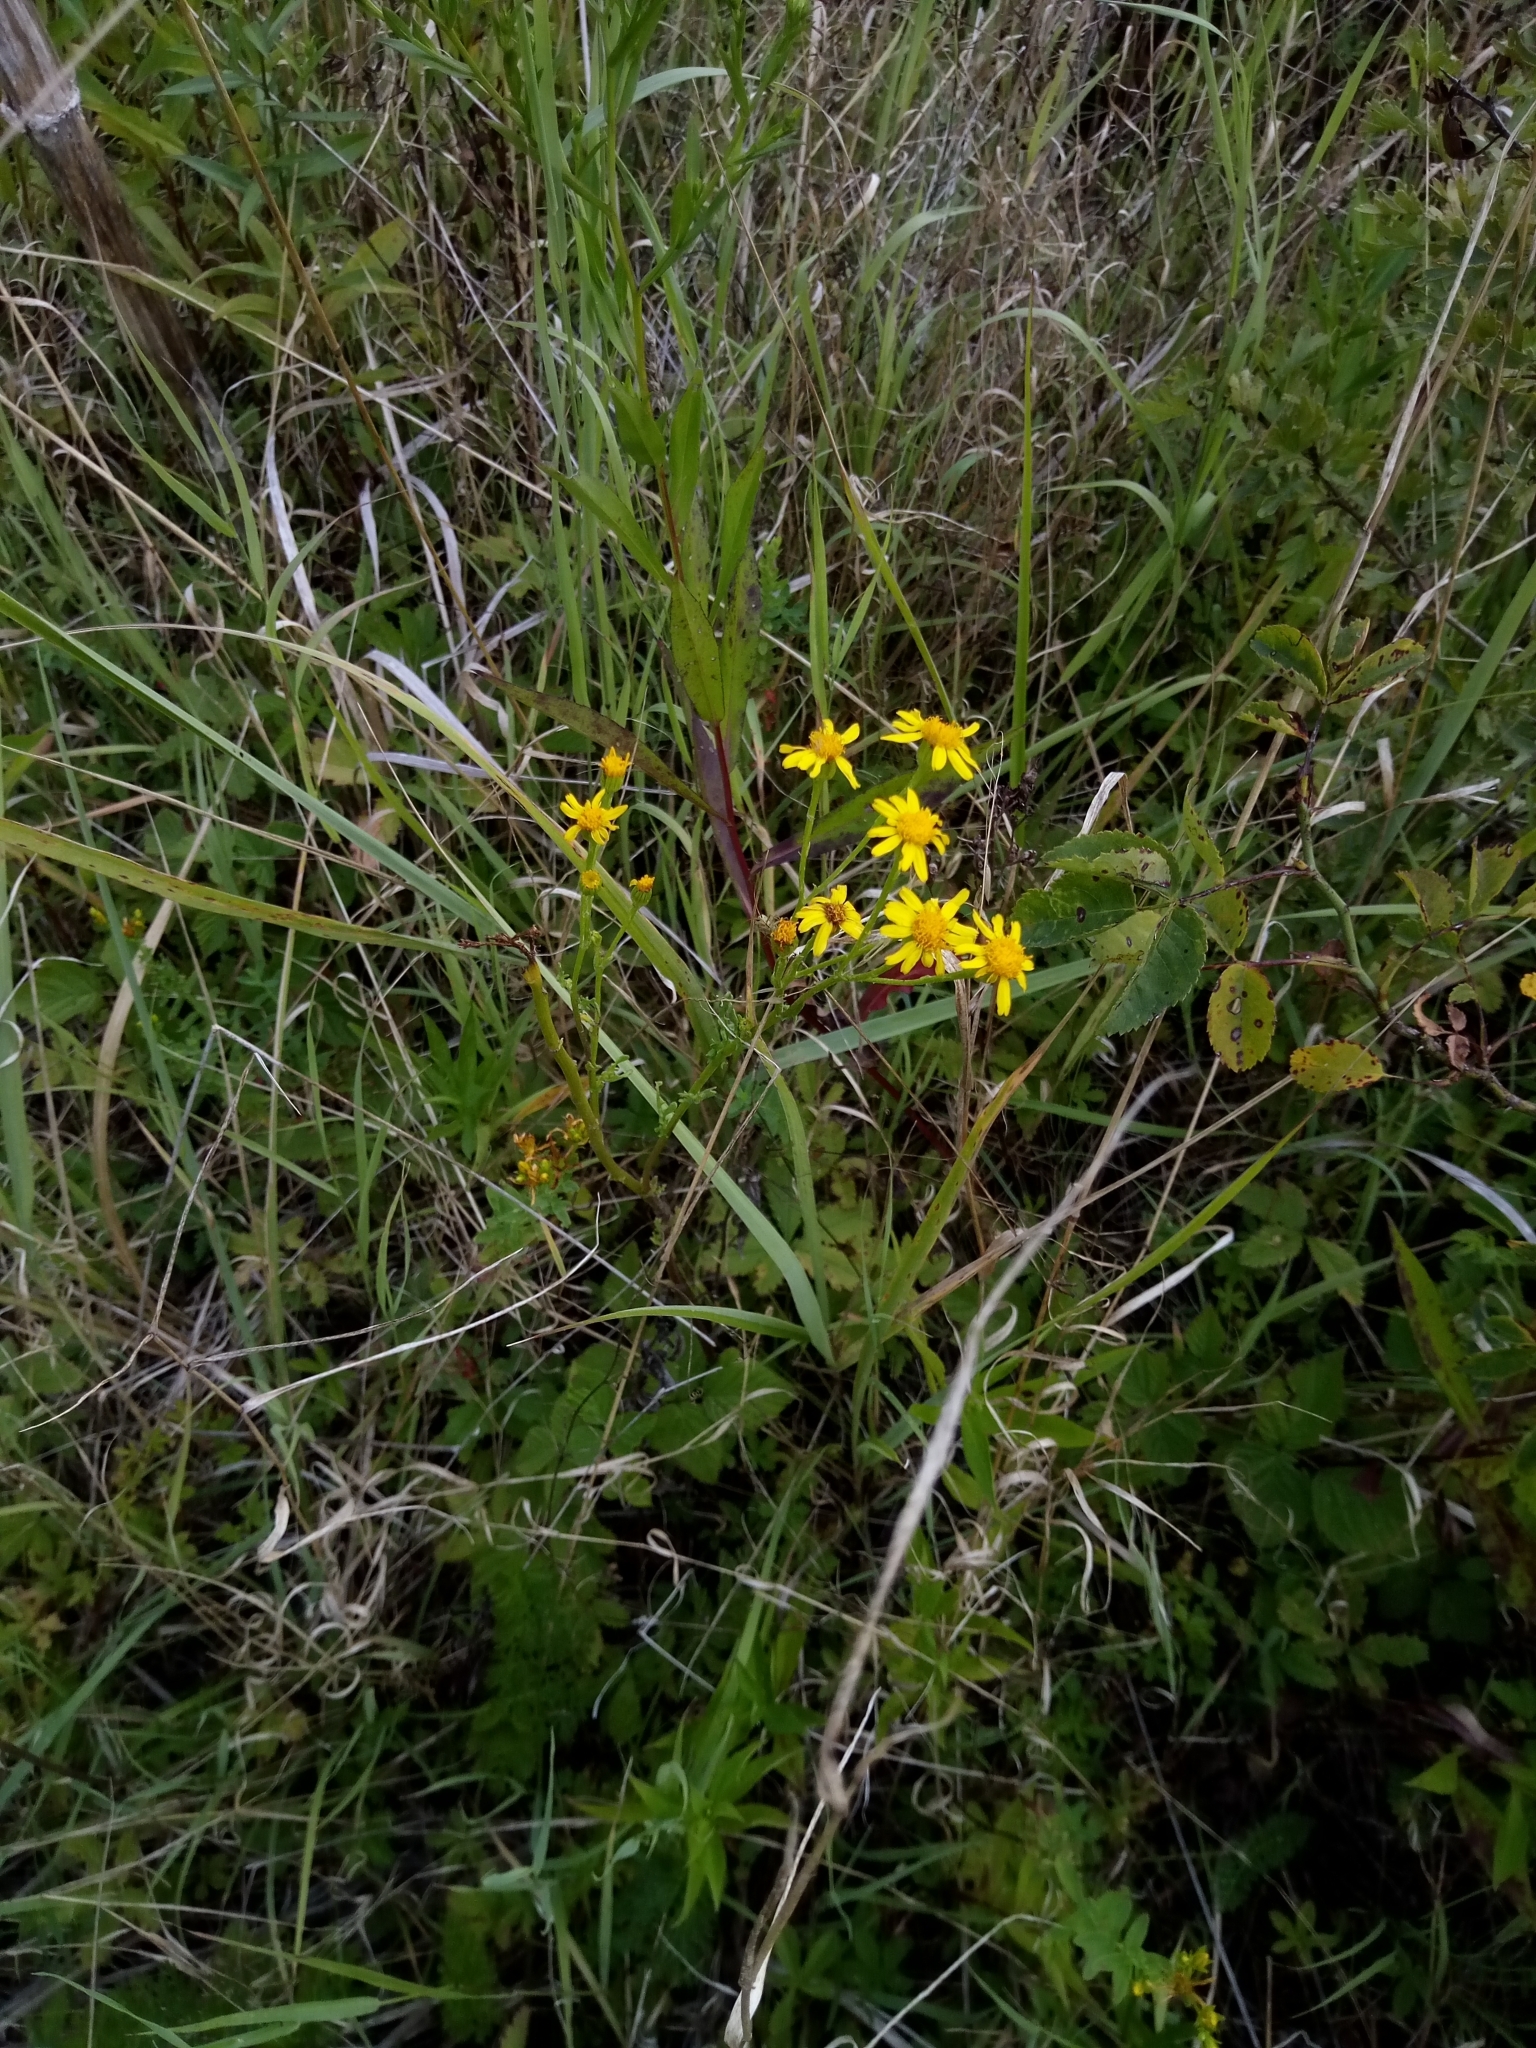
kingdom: Plantae
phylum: Tracheophyta
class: Magnoliopsida
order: Asterales
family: Asteraceae
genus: Jacobaea
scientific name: Jacobaea vulgaris
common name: Stinking willie
